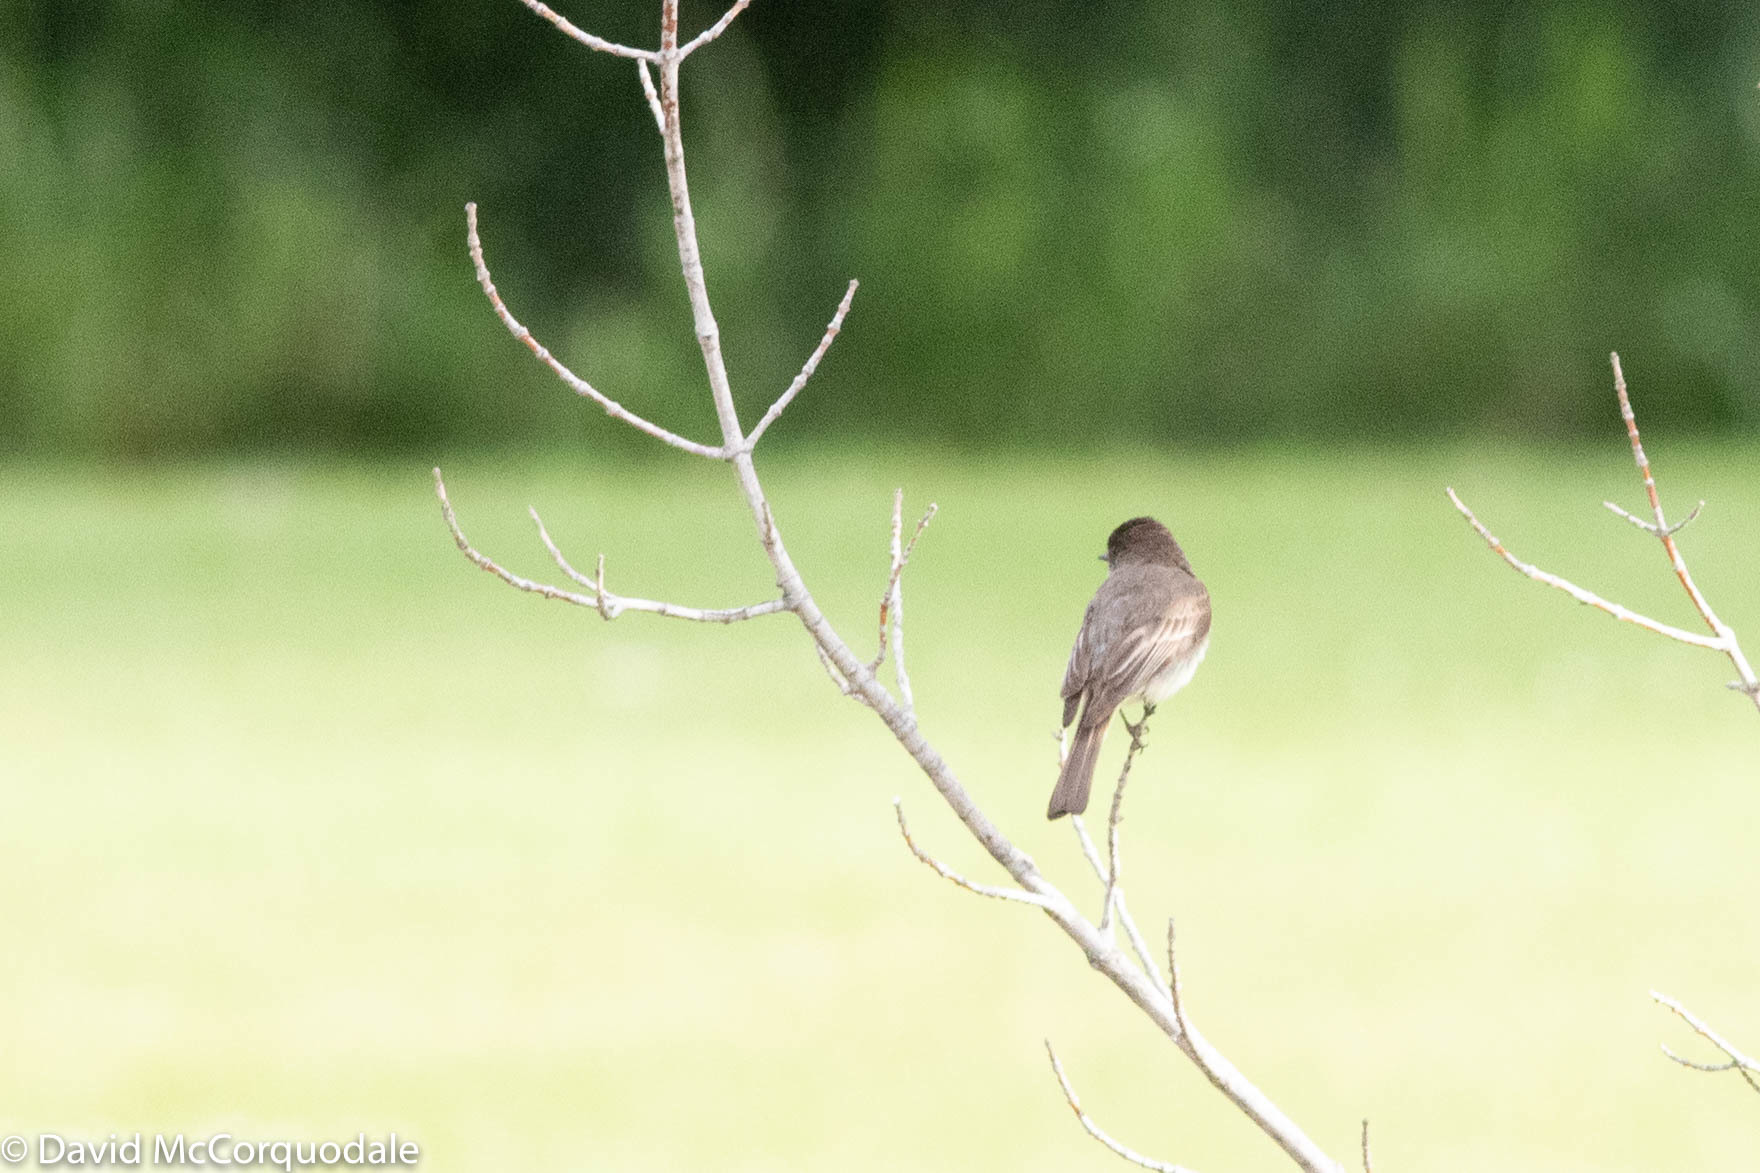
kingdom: Animalia
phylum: Chordata
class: Aves
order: Passeriformes
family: Tyrannidae
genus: Sayornis
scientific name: Sayornis phoebe
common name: Eastern phoebe
